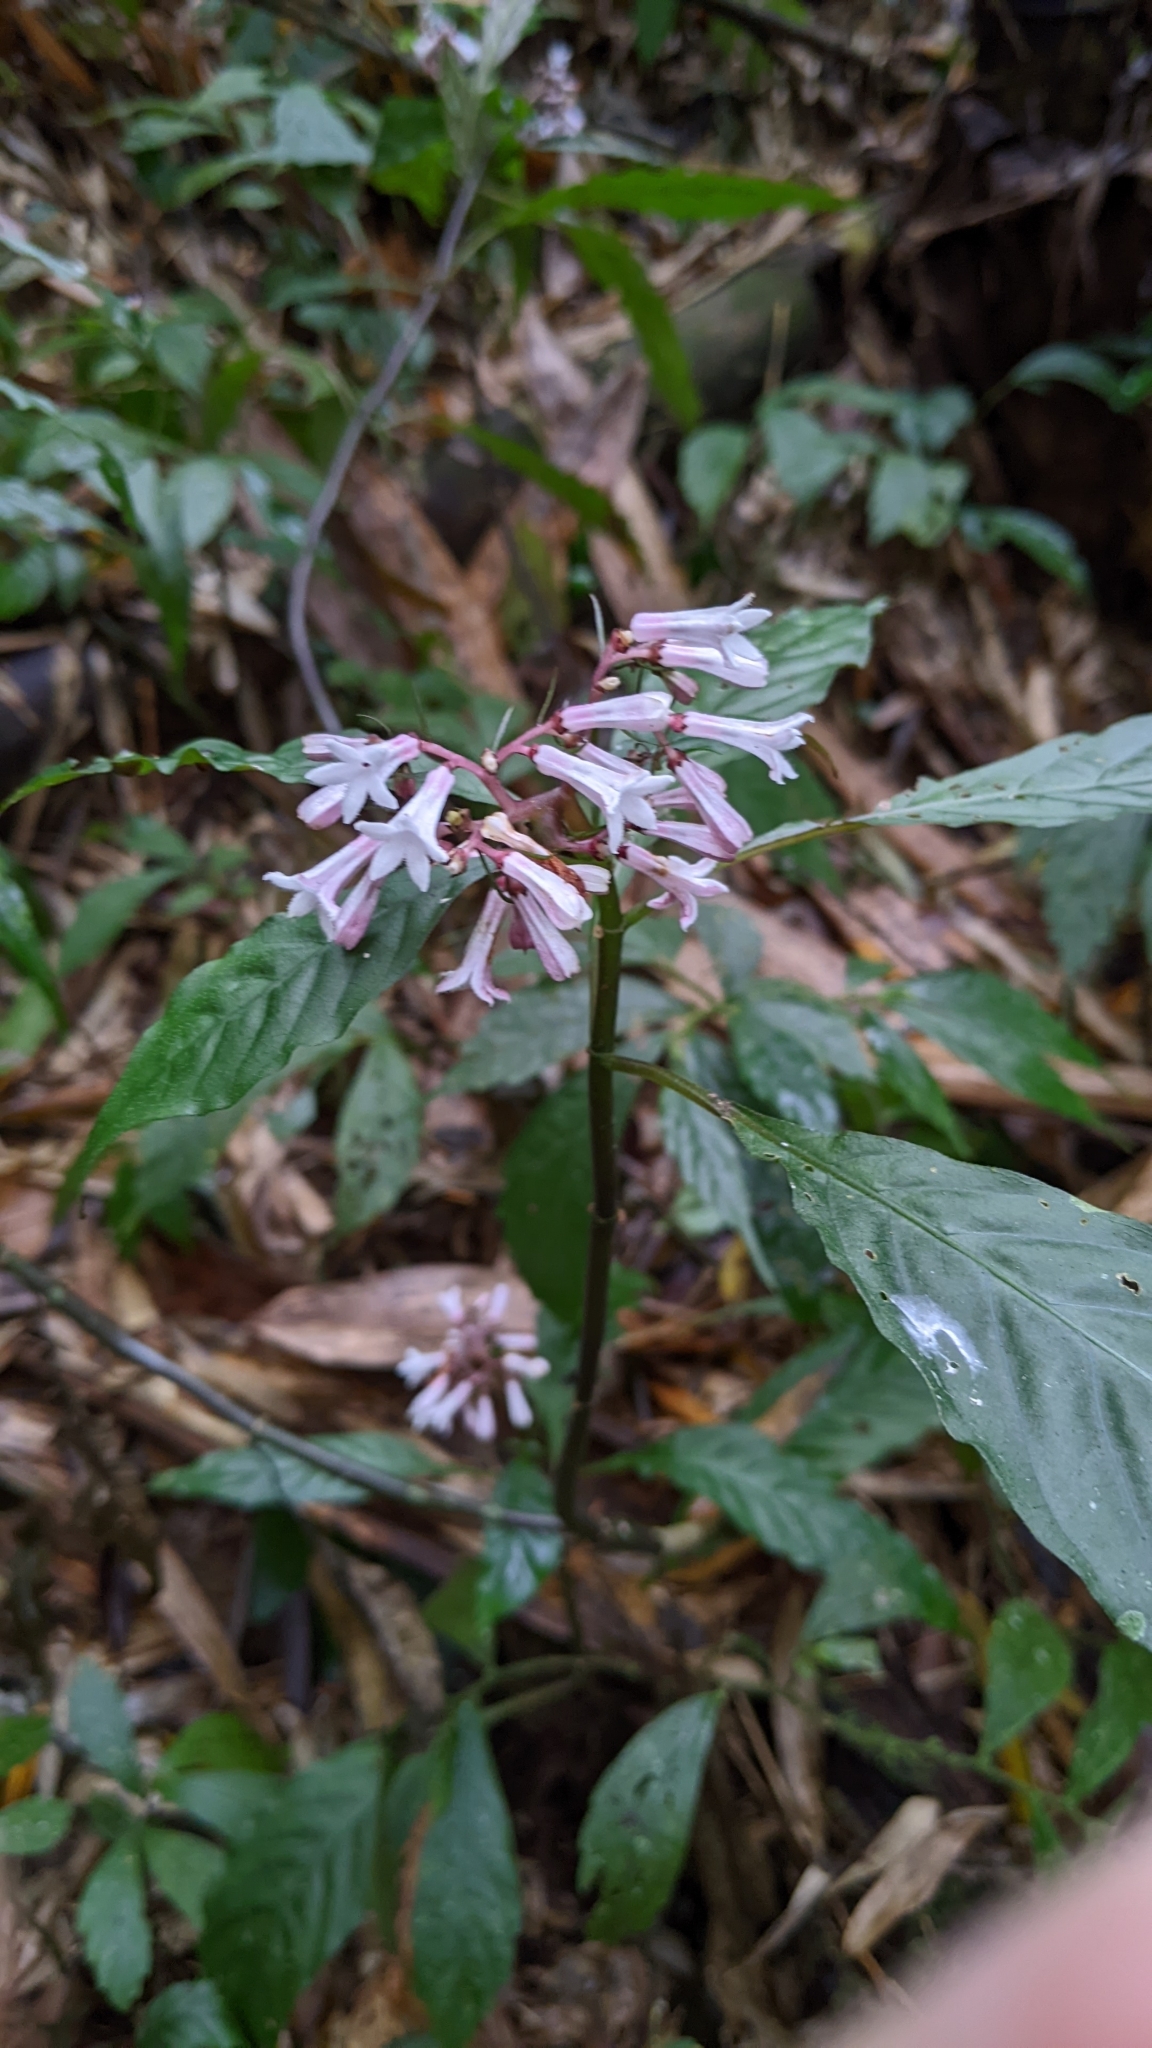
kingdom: Plantae
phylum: Tracheophyta
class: Magnoliopsida
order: Gentianales
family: Rubiaceae
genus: Ophiorrhiza
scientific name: Ophiorrhiza japonica
